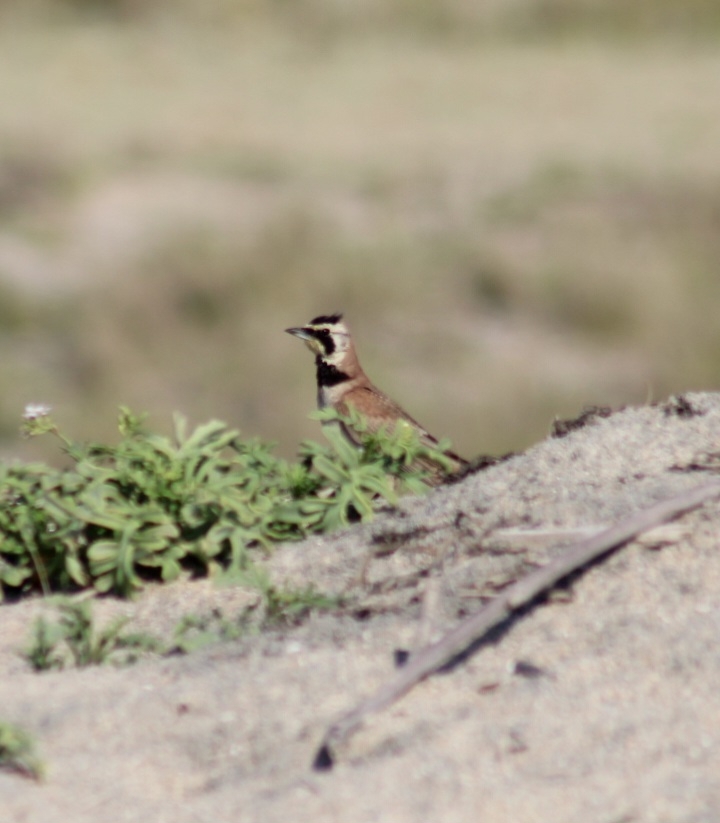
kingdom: Animalia
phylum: Chordata
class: Aves
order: Passeriformes
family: Alaudidae
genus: Eremophila
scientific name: Eremophila alpestris
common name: Horned lark
